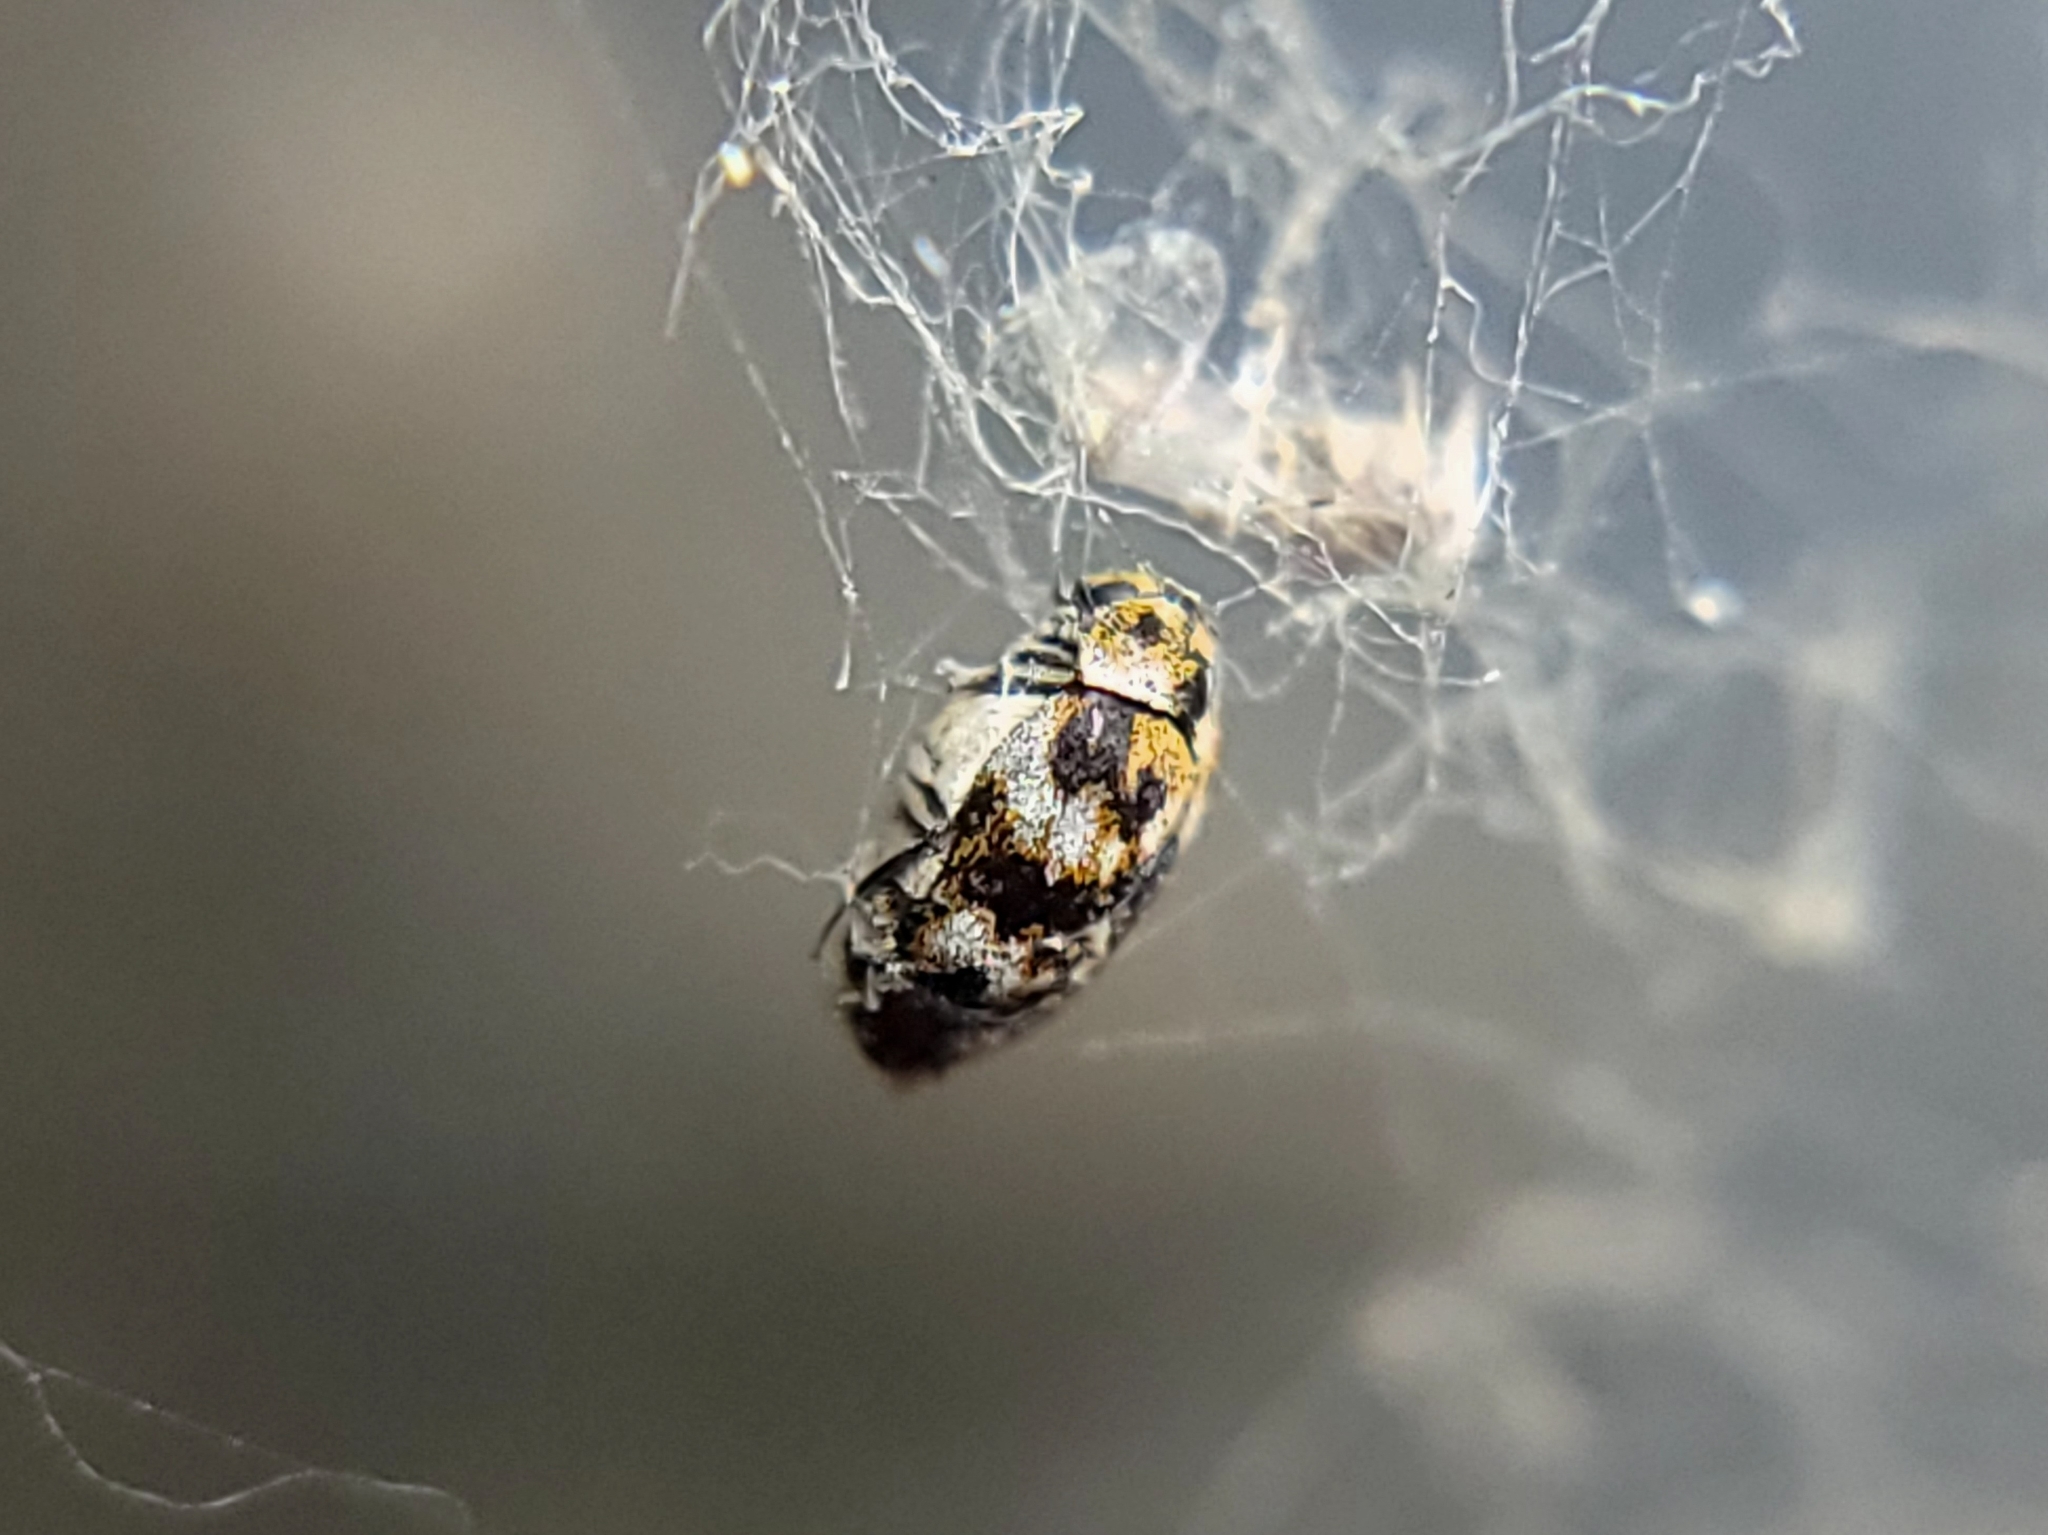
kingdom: Animalia
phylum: Arthropoda
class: Insecta
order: Coleoptera
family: Dermestidae
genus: Anthrenus
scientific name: Anthrenus verbasci
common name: Varied carpet beetle
